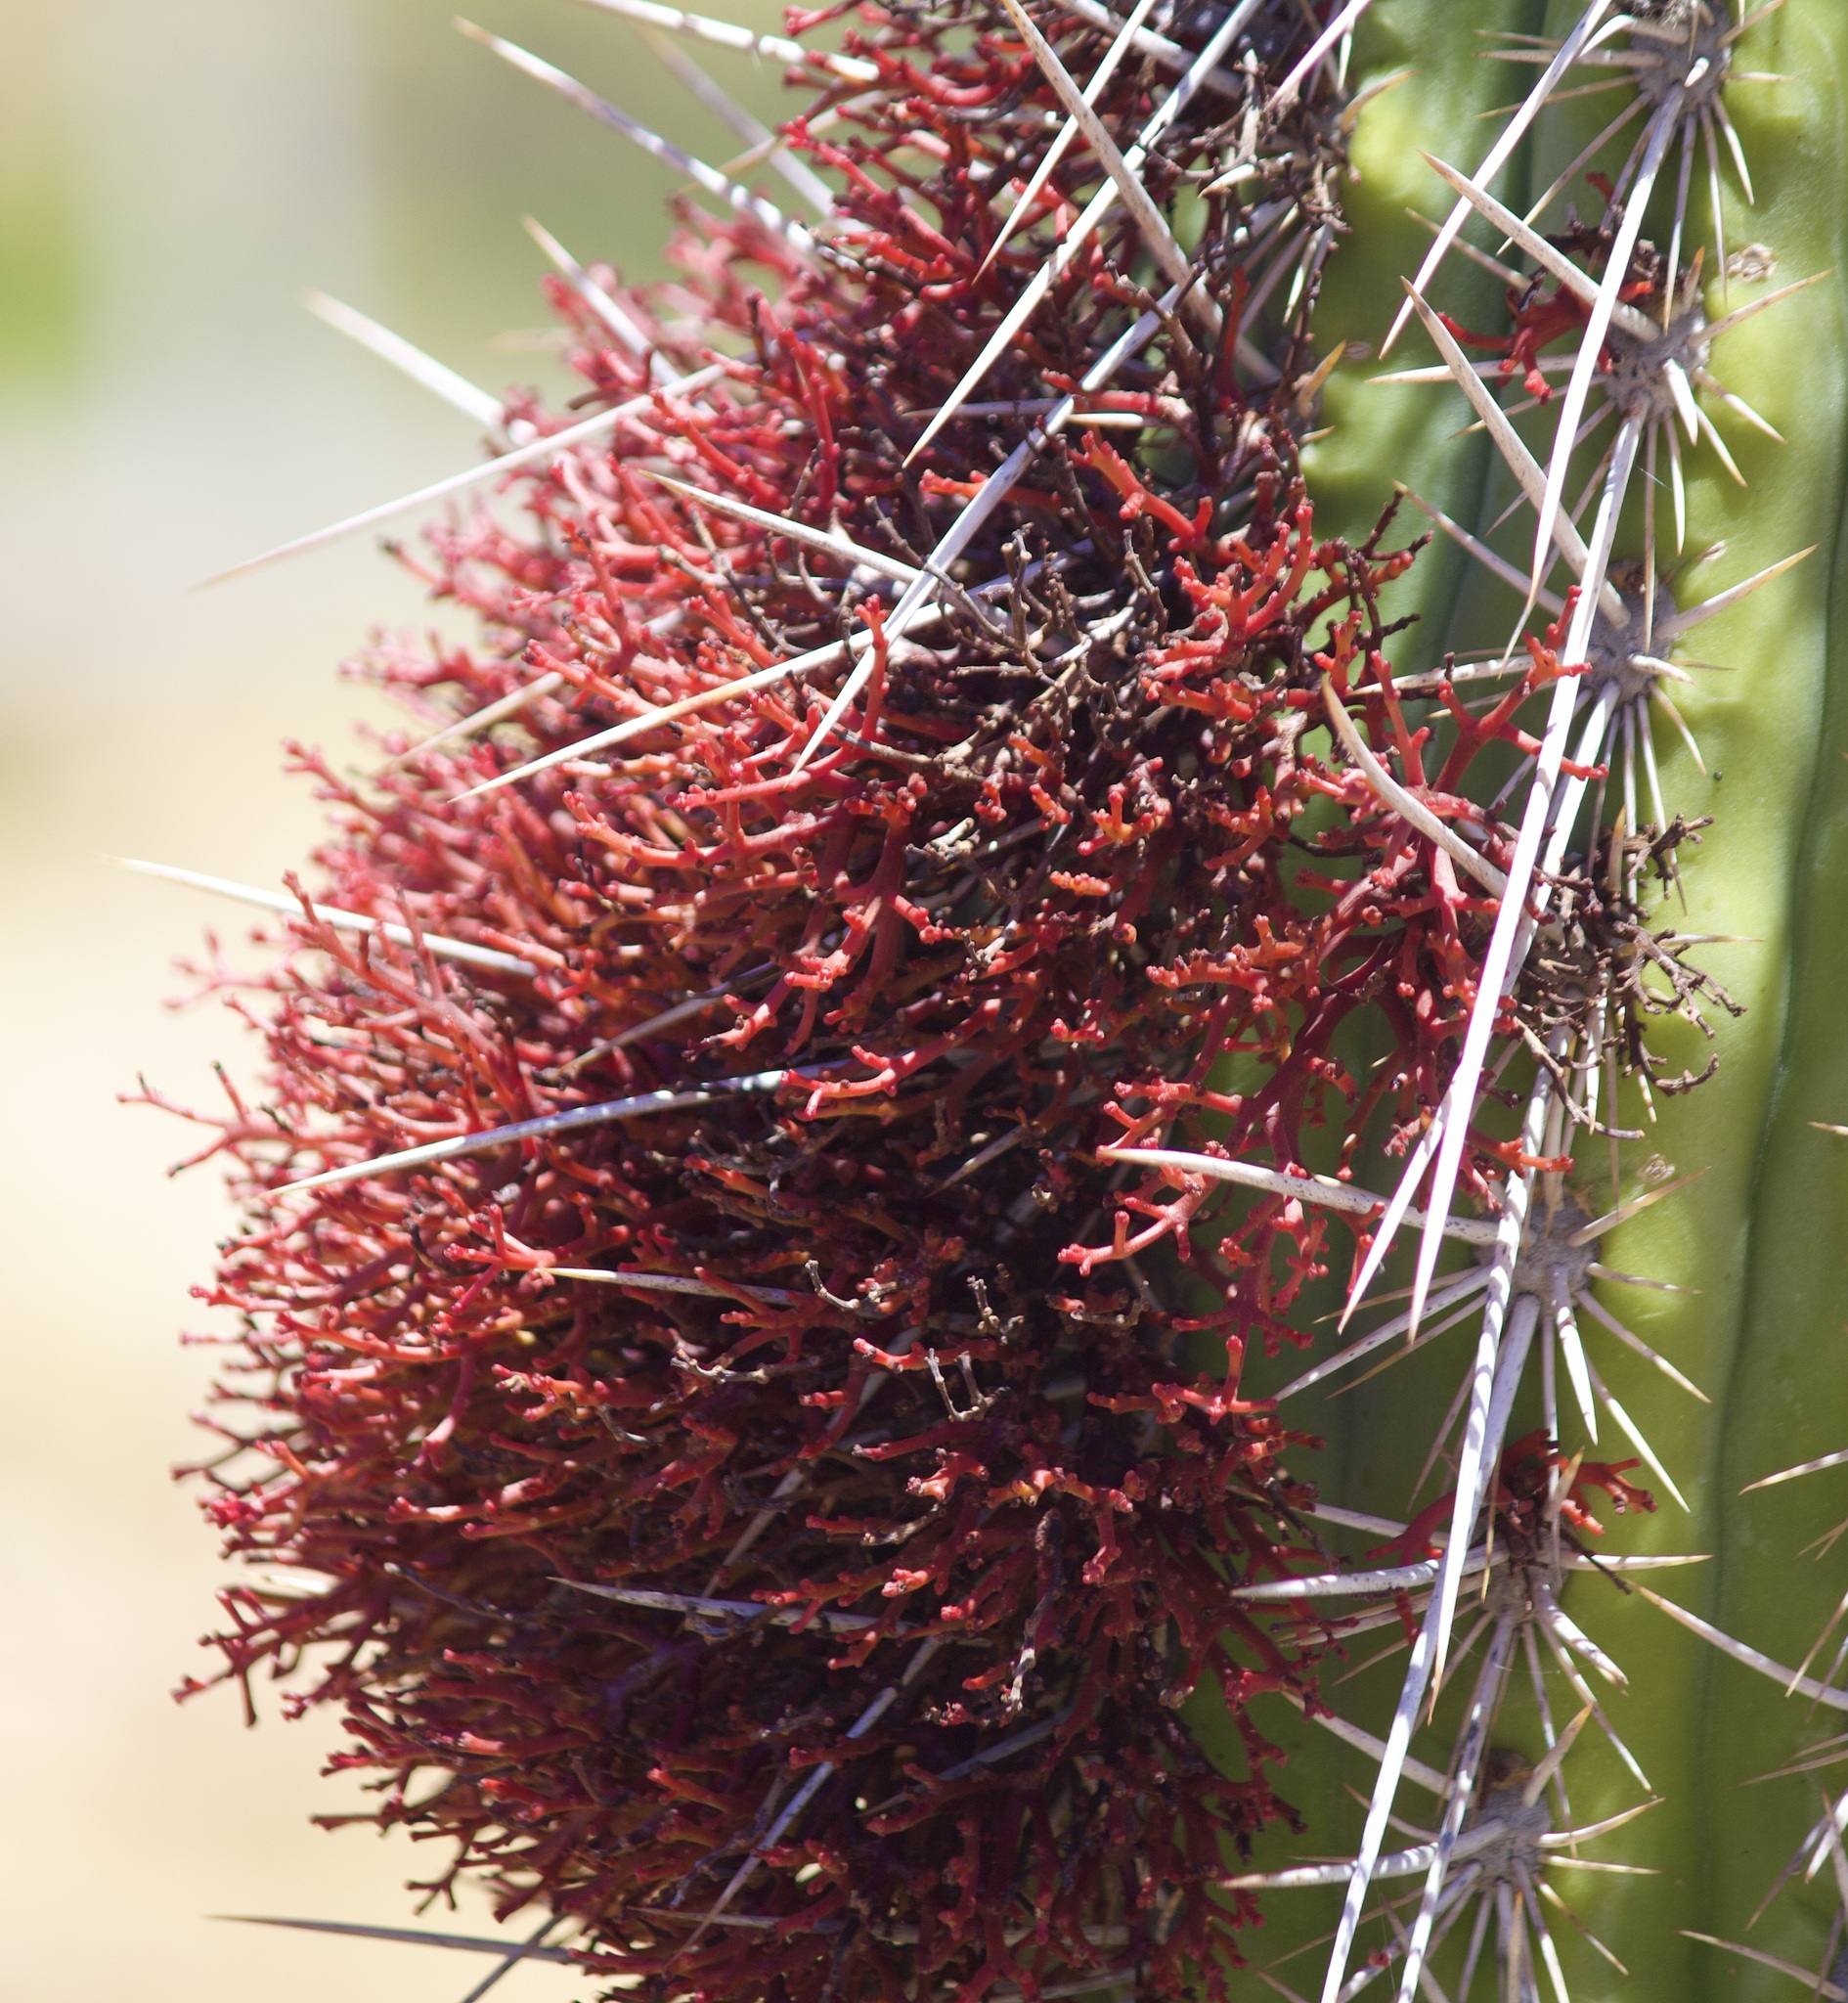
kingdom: Plantae
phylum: Tracheophyta
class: Magnoliopsida
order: Santalales
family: Loranthaceae
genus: Tristerix
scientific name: Tristerix aphyllus
